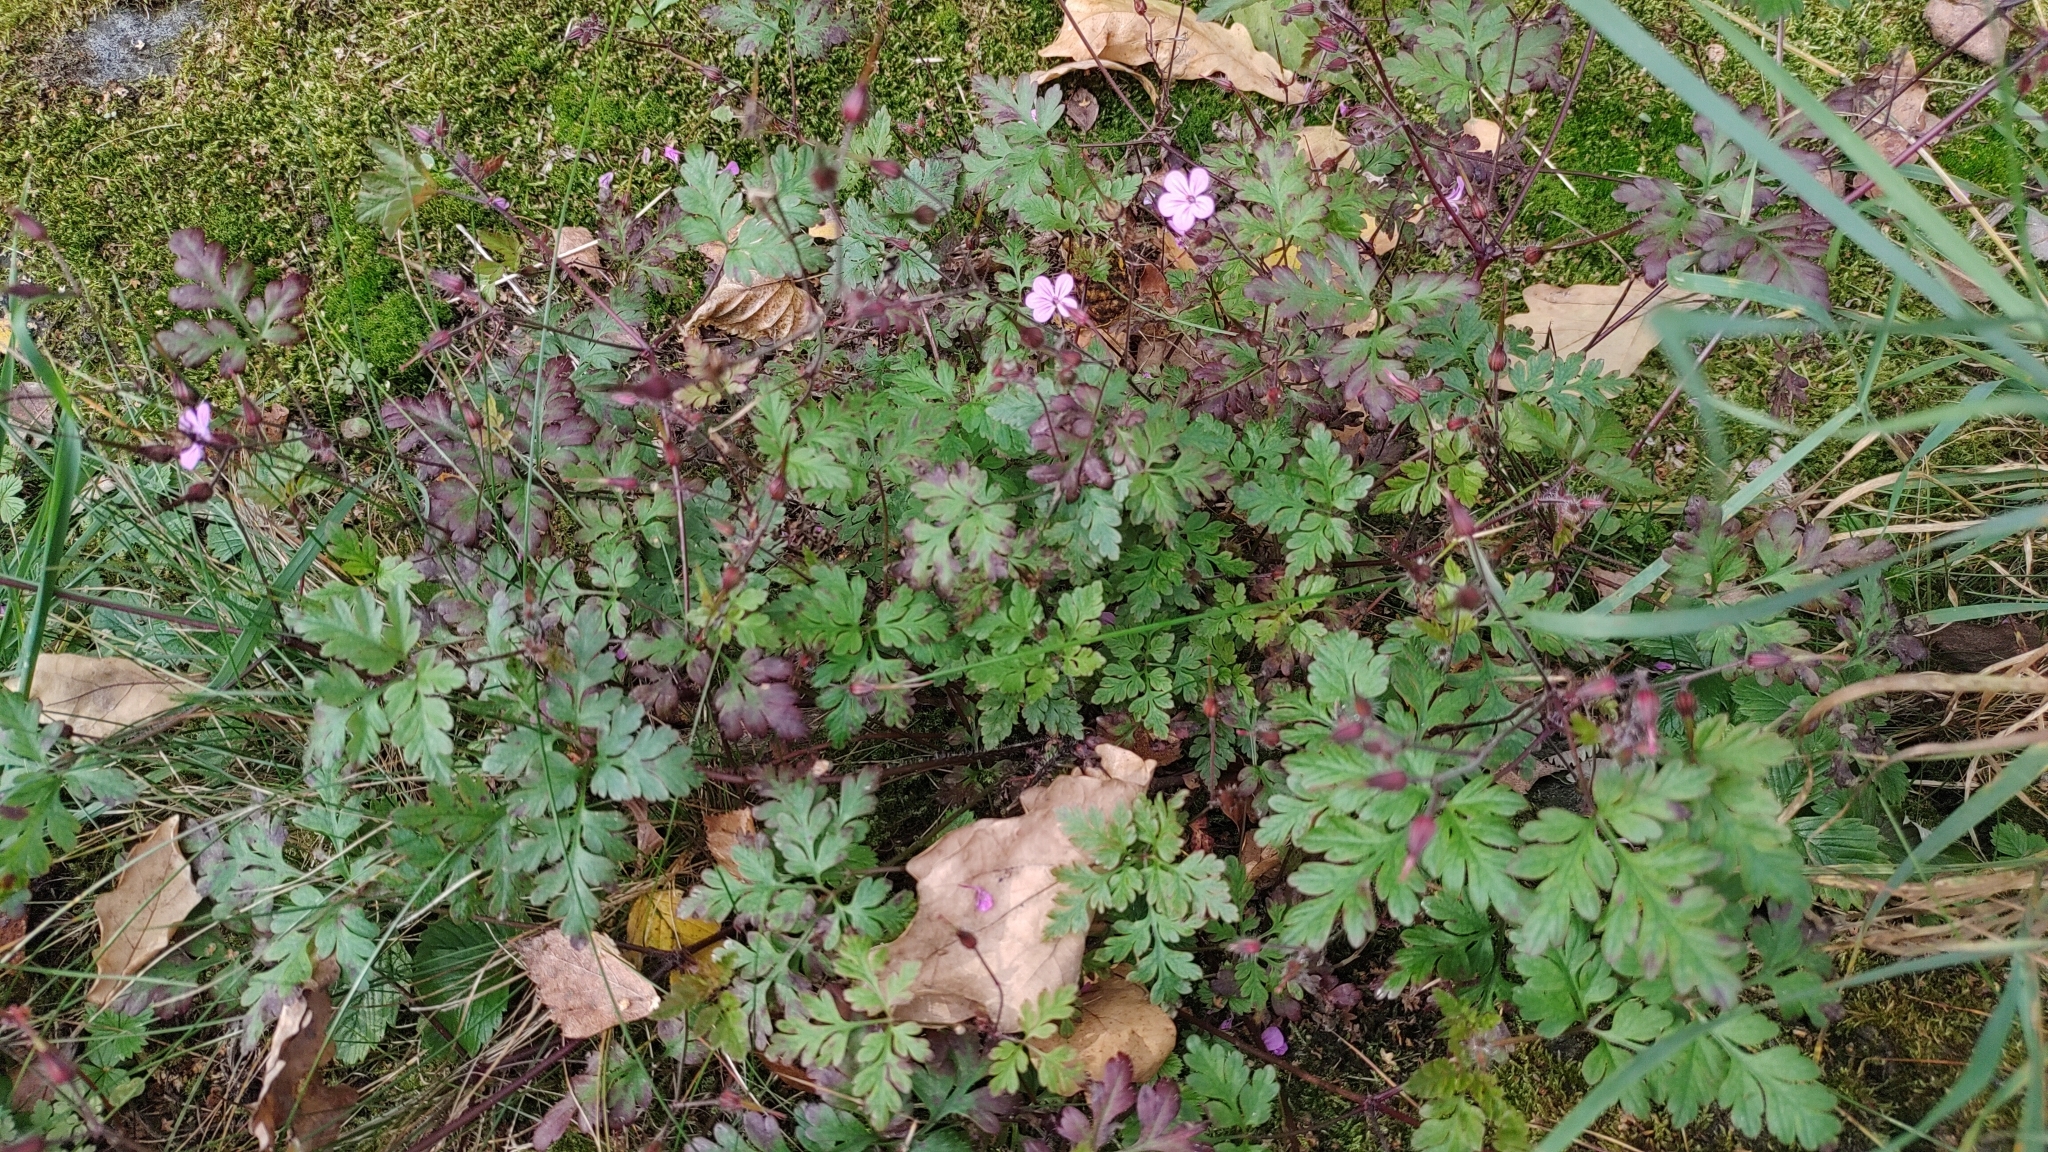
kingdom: Plantae
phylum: Tracheophyta
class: Magnoliopsida
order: Geraniales
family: Geraniaceae
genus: Geranium
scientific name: Geranium robertianum
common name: Herb-robert
